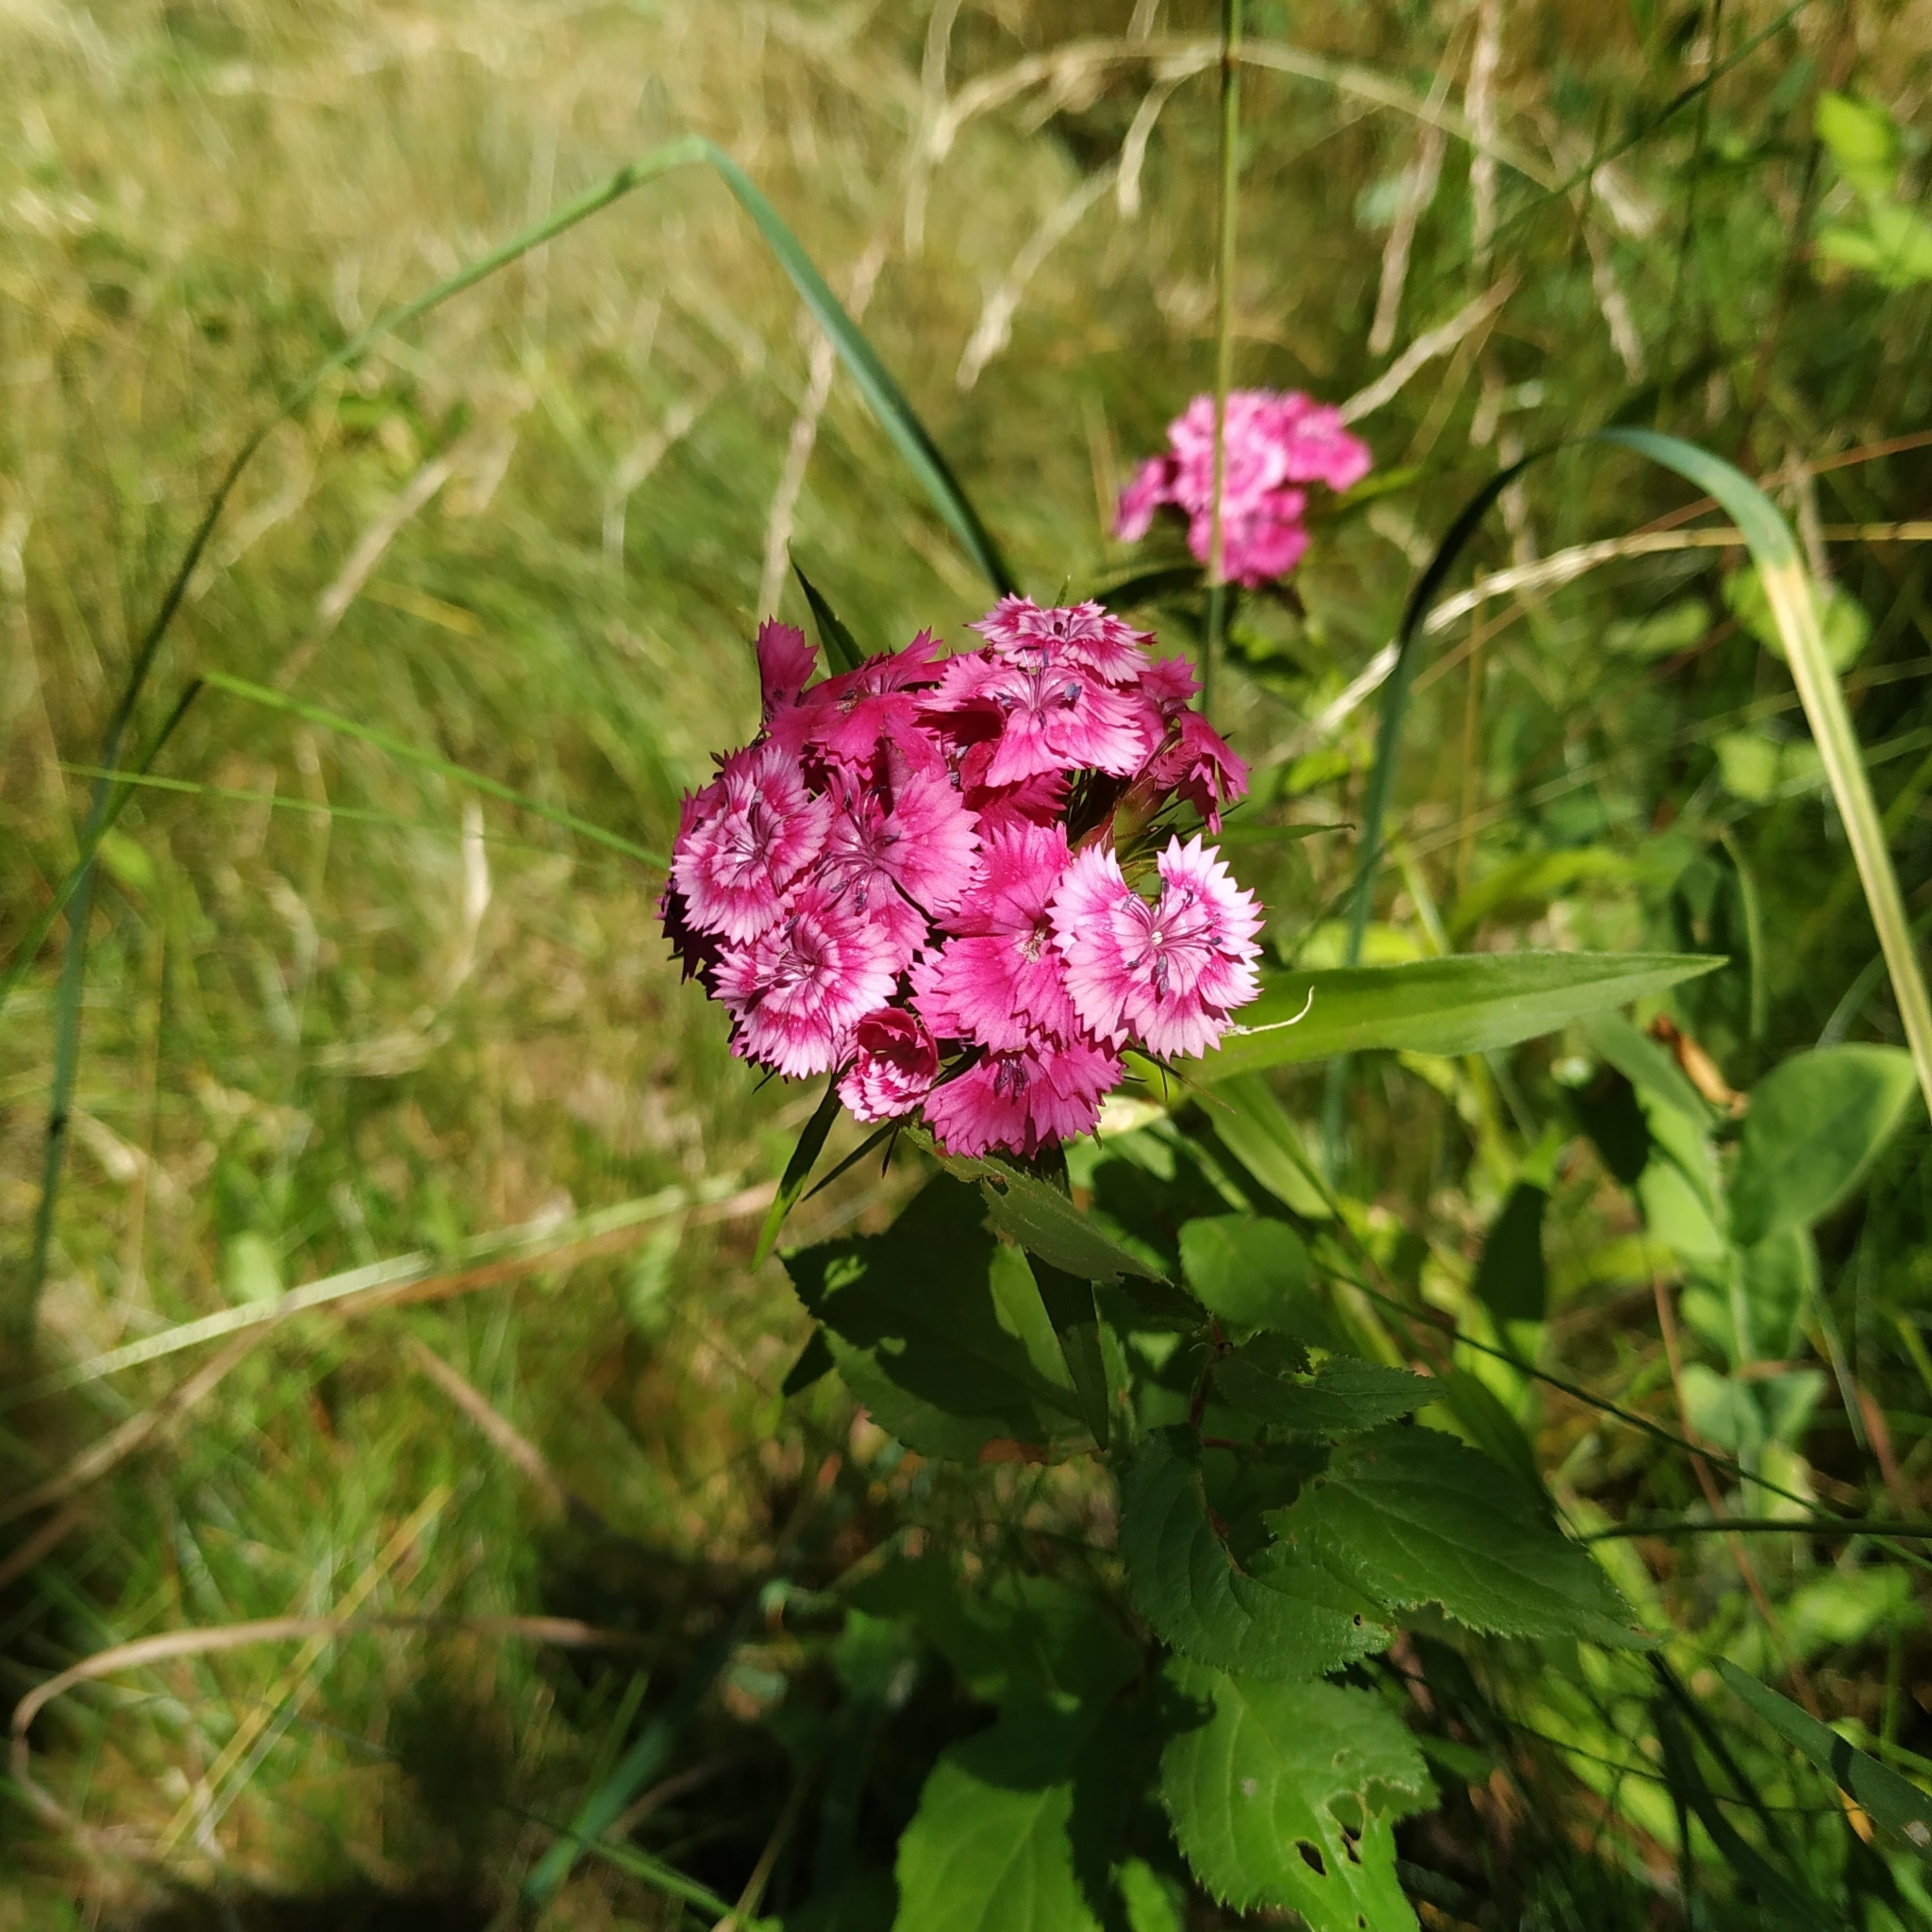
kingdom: Plantae
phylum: Tracheophyta
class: Magnoliopsida
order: Caryophyllales
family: Caryophyllaceae
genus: Dianthus
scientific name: Dianthus barbatus
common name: Sweet-william
